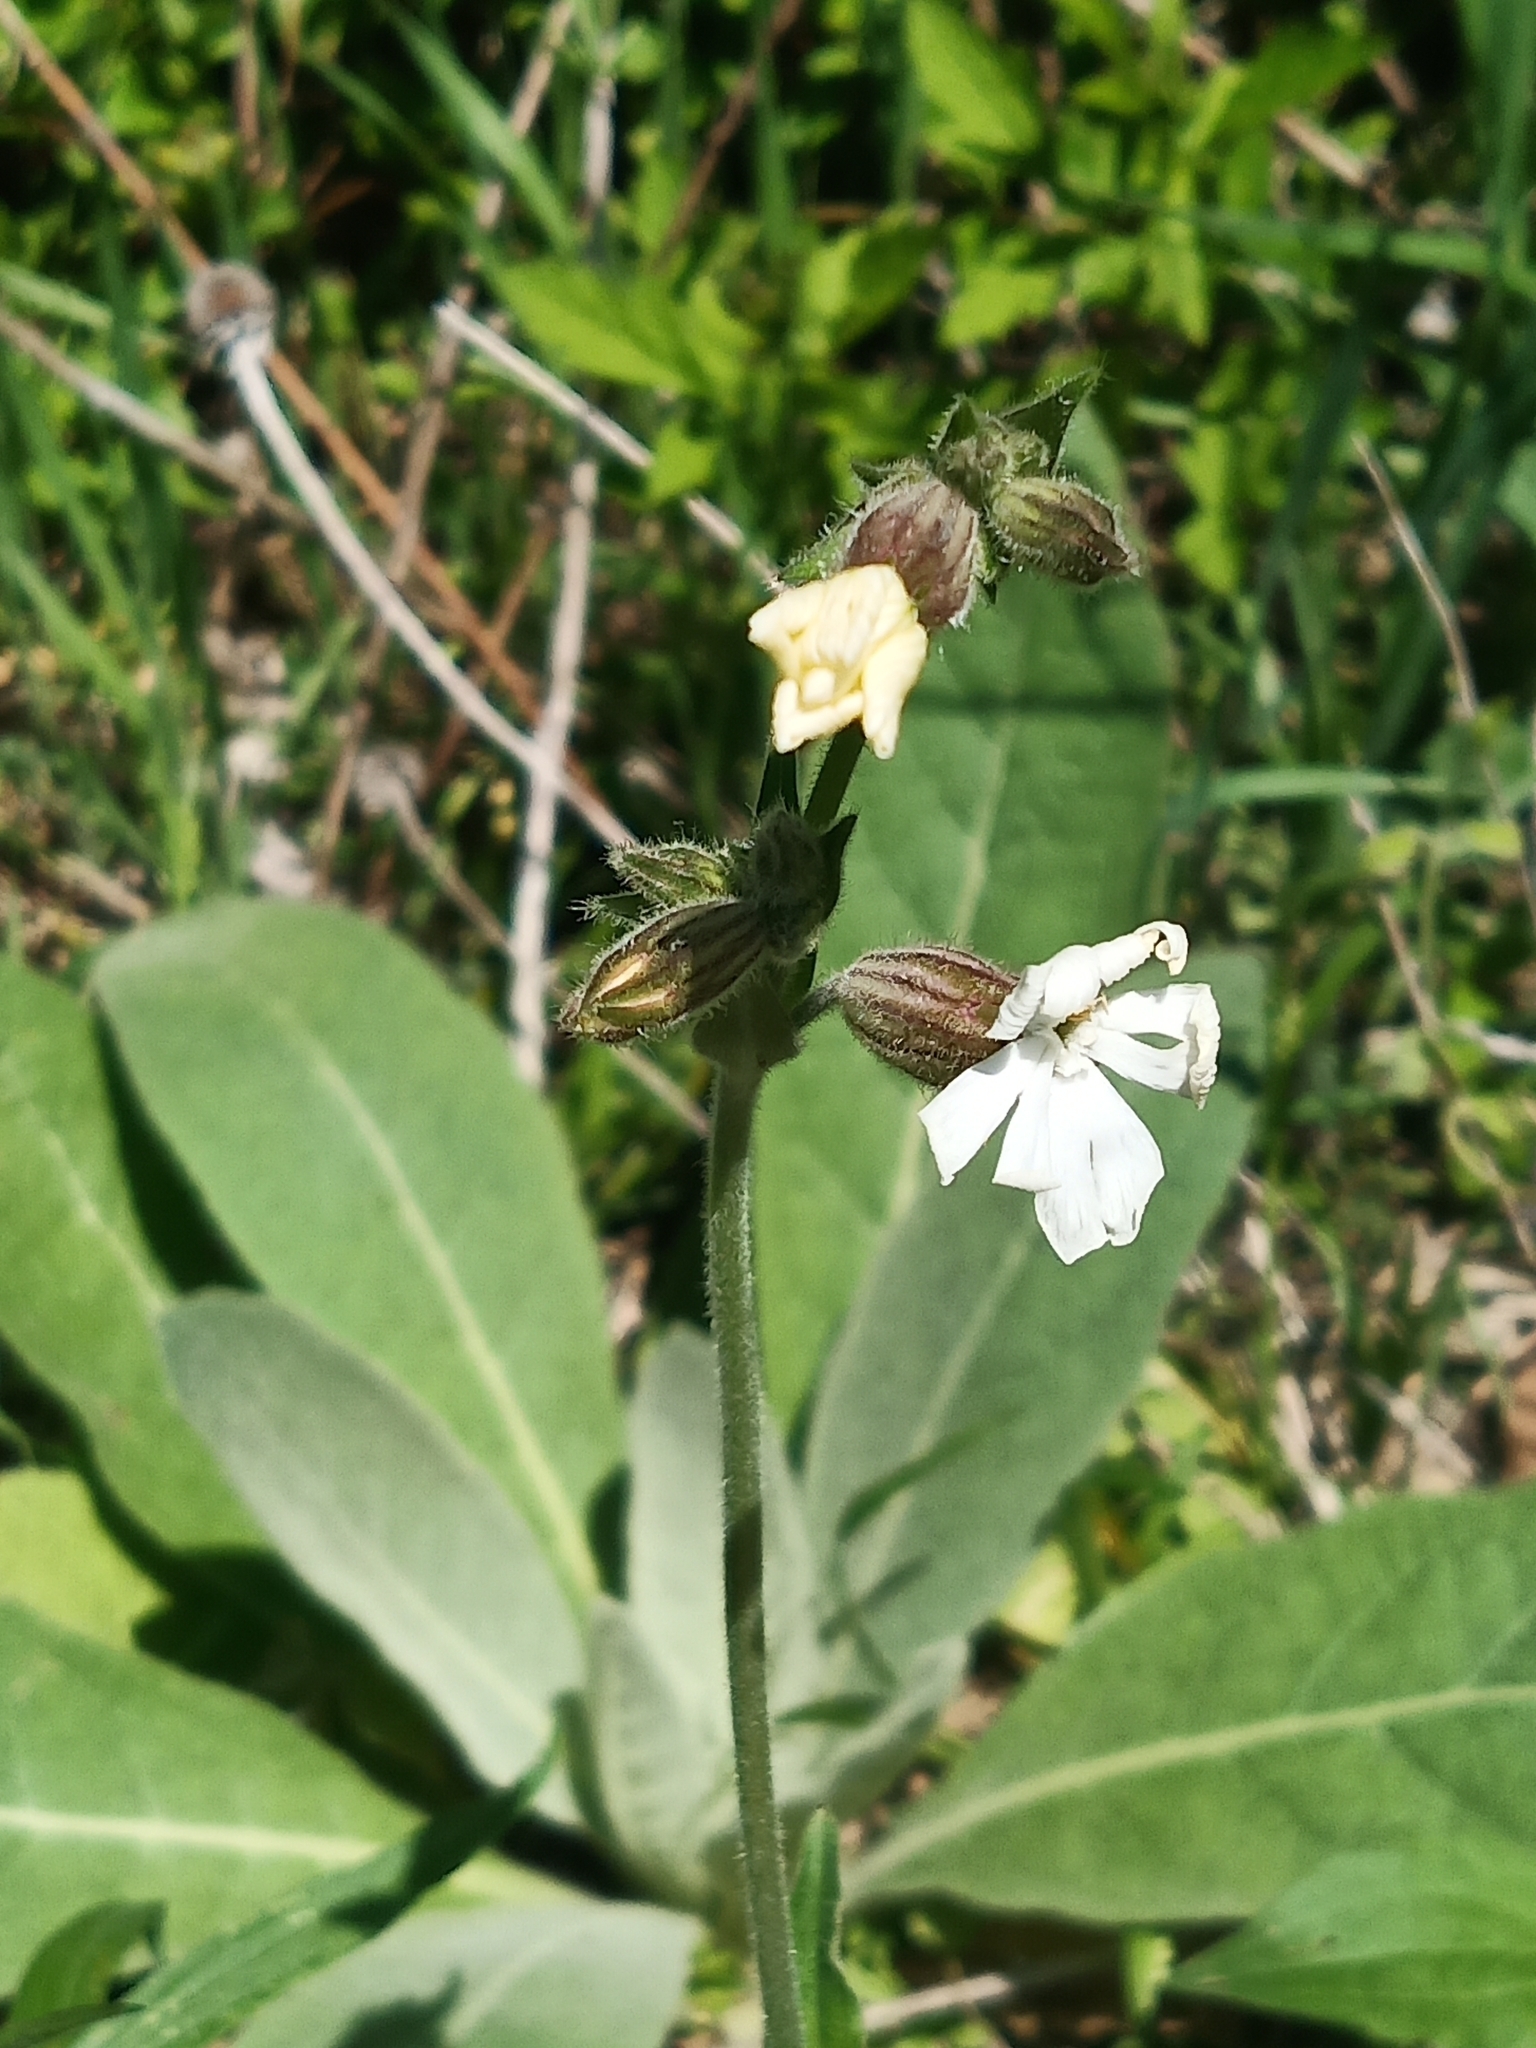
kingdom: Plantae
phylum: Tracheophyta
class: Magnoliopsida
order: Caryophyllales
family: Caryophyllaceae
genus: Silene
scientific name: Silene latifolia
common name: White campion
